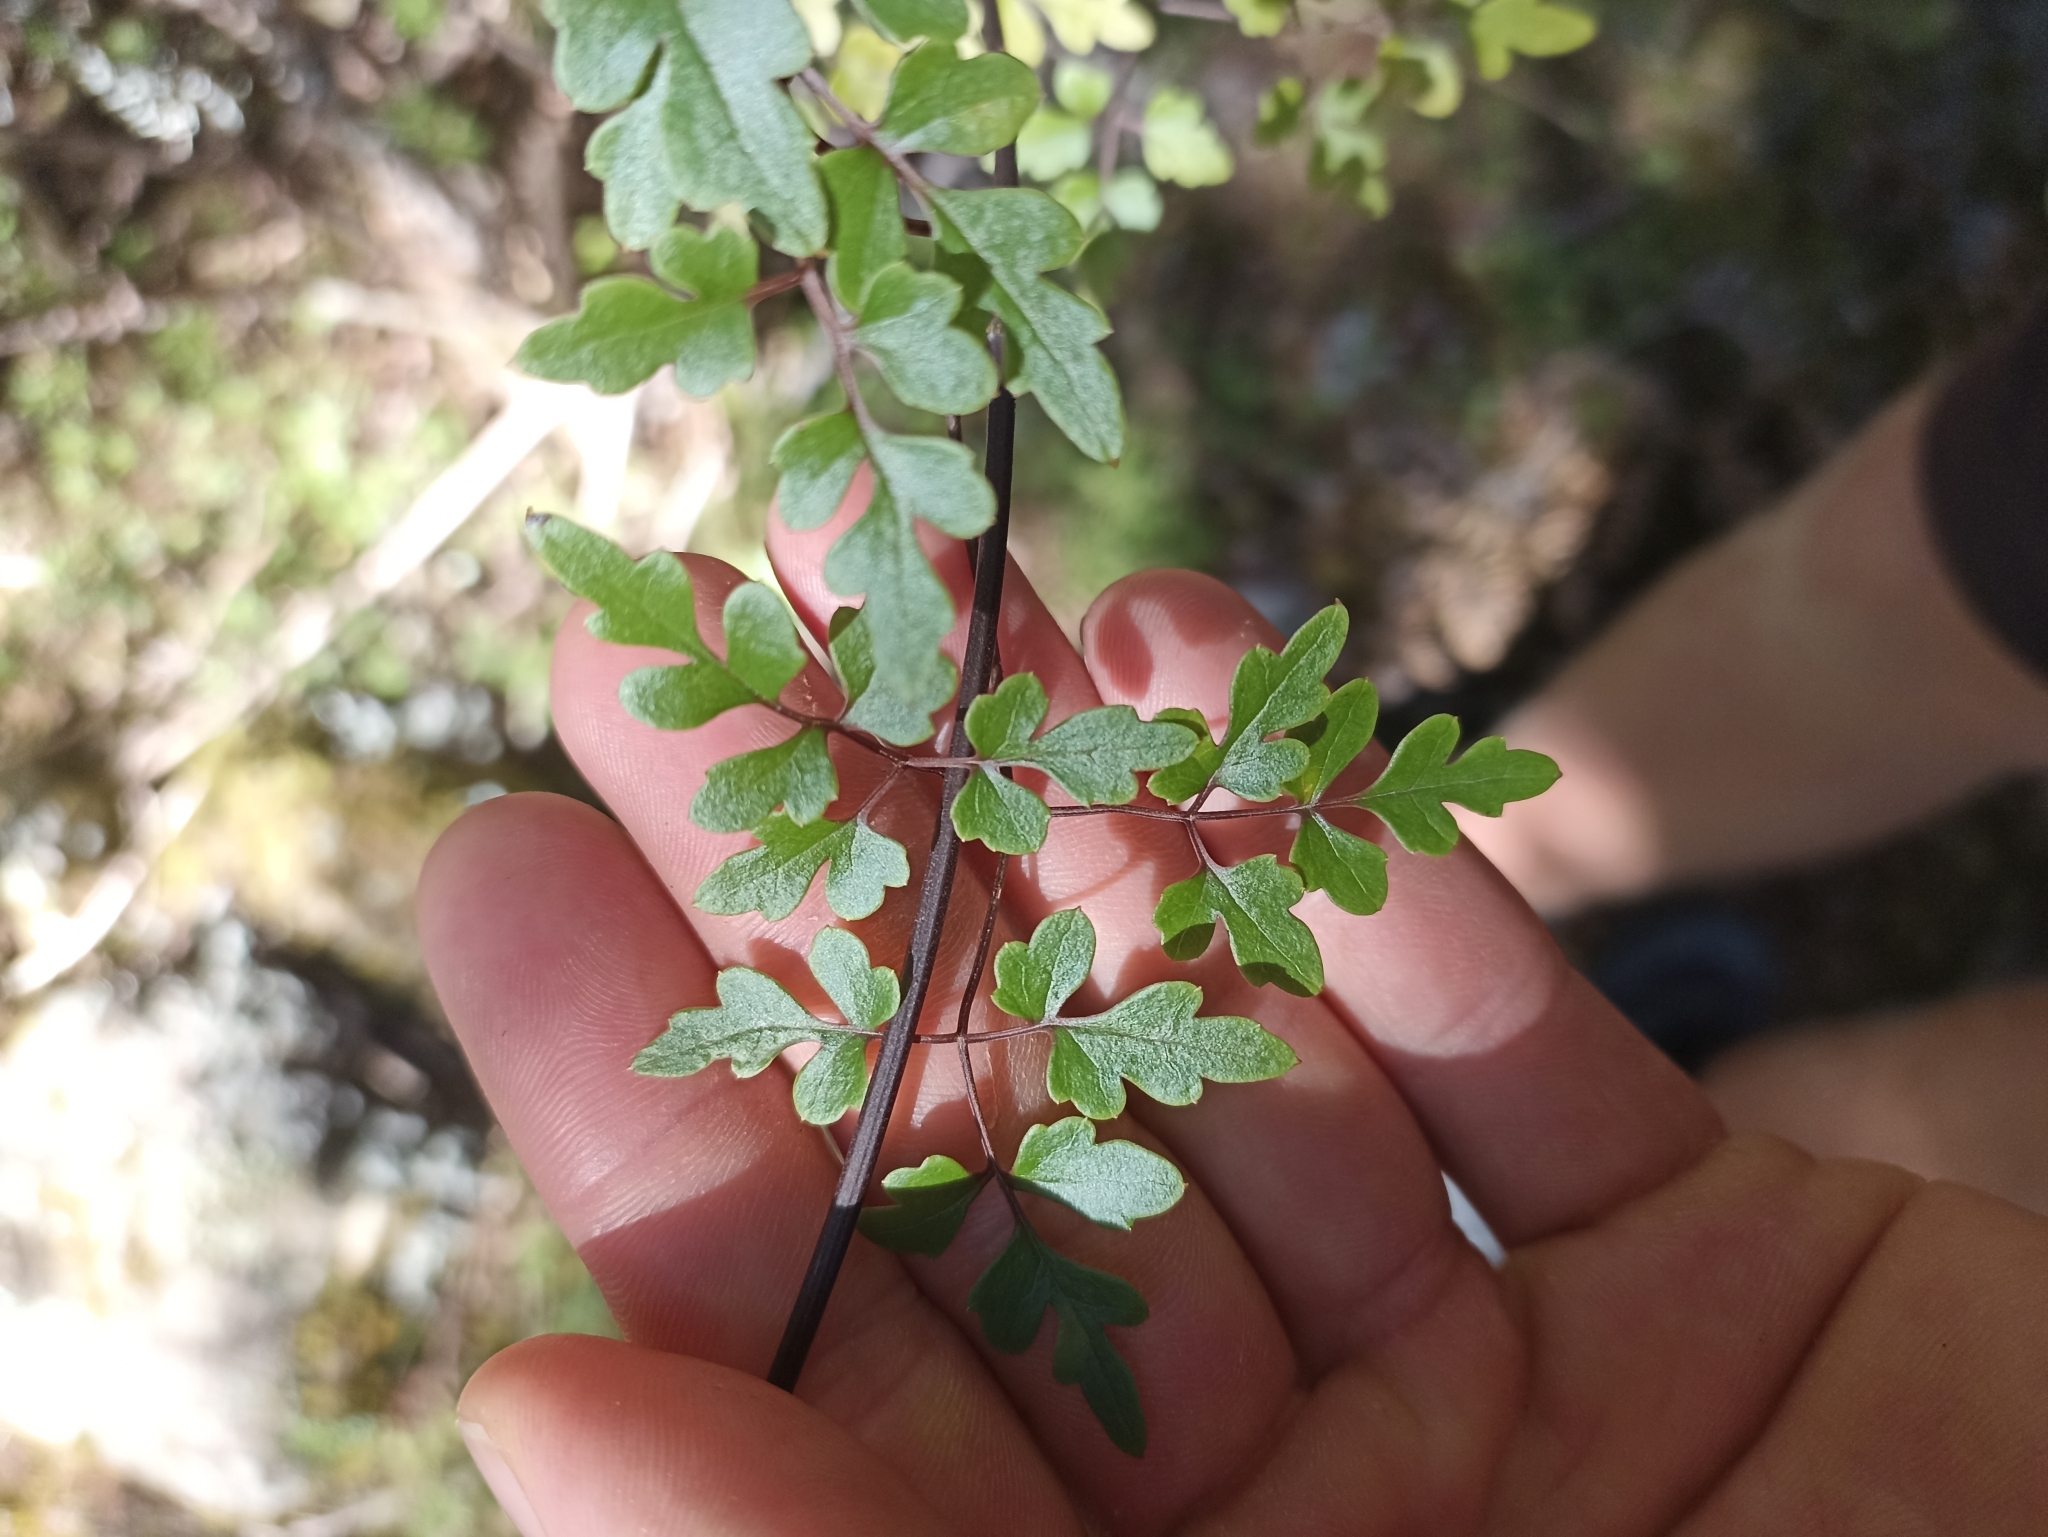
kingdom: Plantae
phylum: Tracheophyta
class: Magnoliopsida
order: Ranunculales
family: Ranunculaceae
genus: Clematis
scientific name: Clematis forsteri
